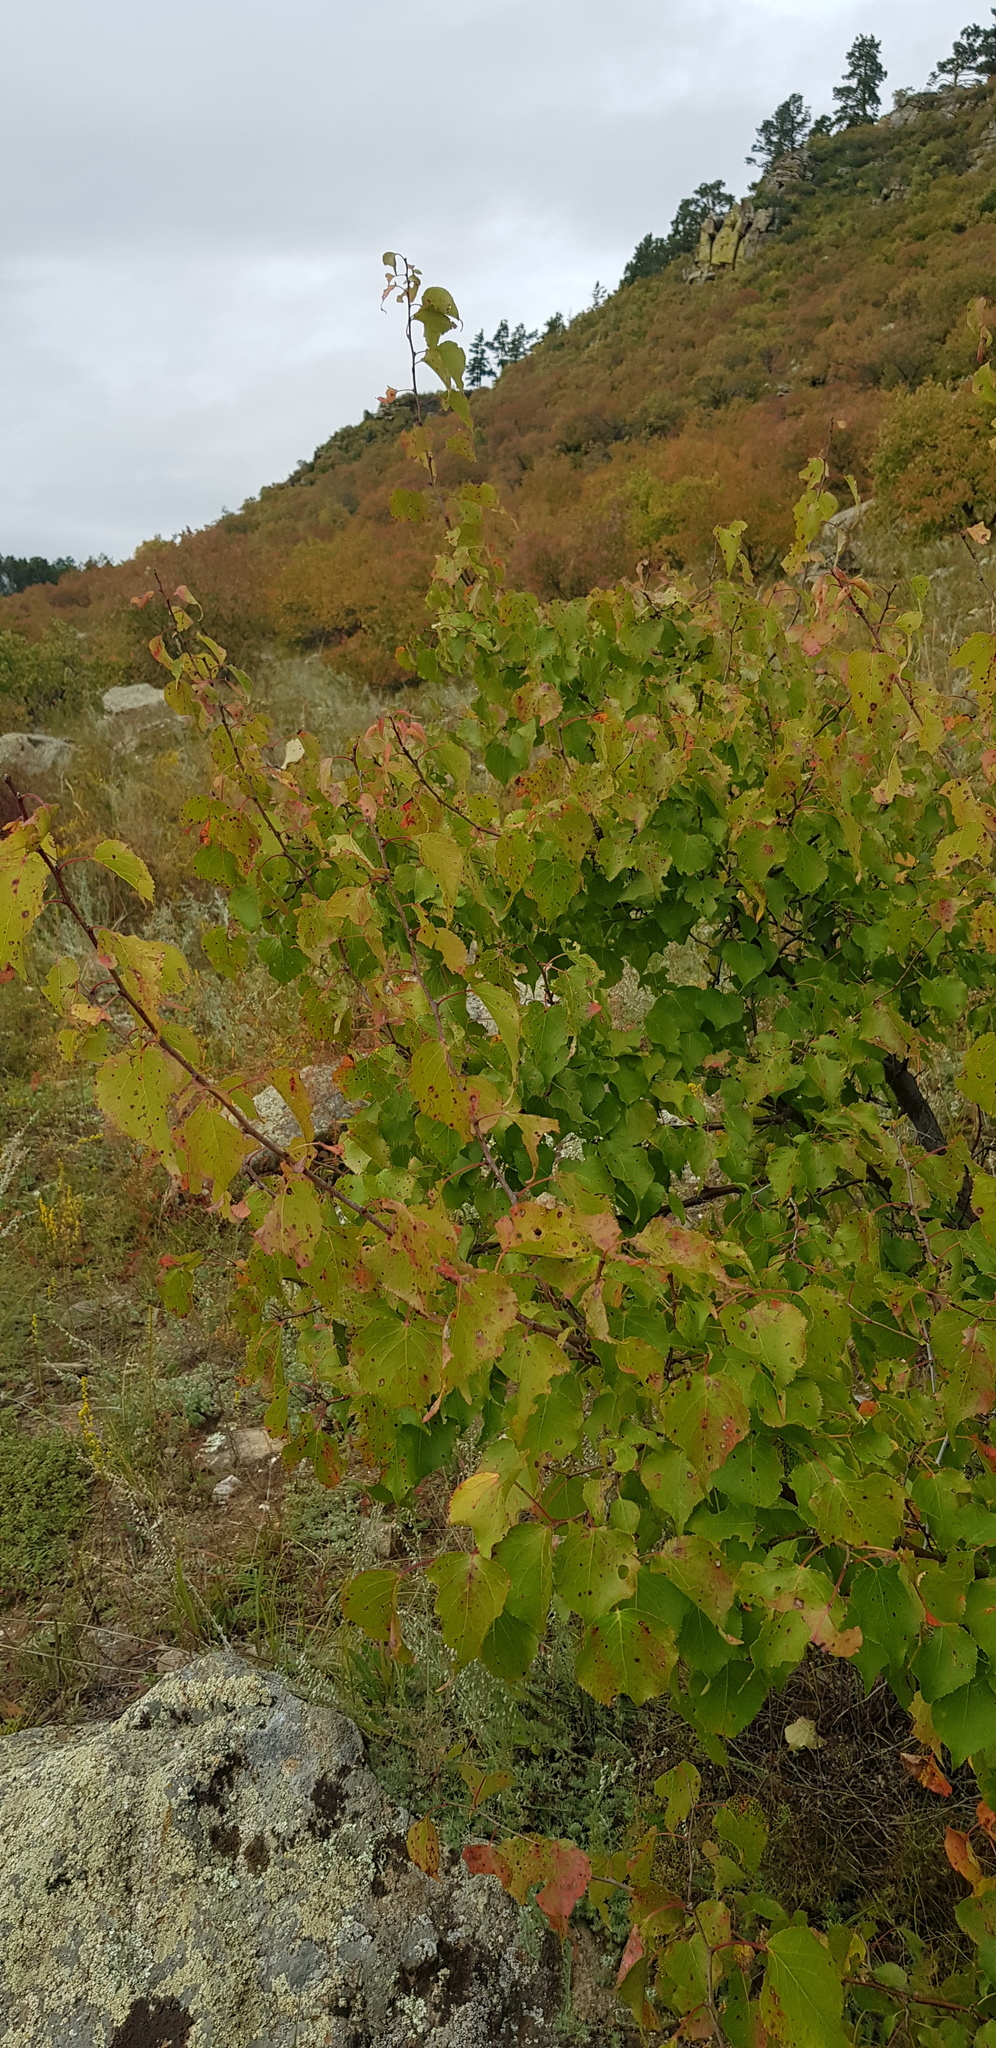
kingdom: Plantae
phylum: Tracheophyta
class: Magnoliopsida
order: Rosales
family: Rosaceae
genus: Prunus
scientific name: Prunus sibirica
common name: Siberian apricot
